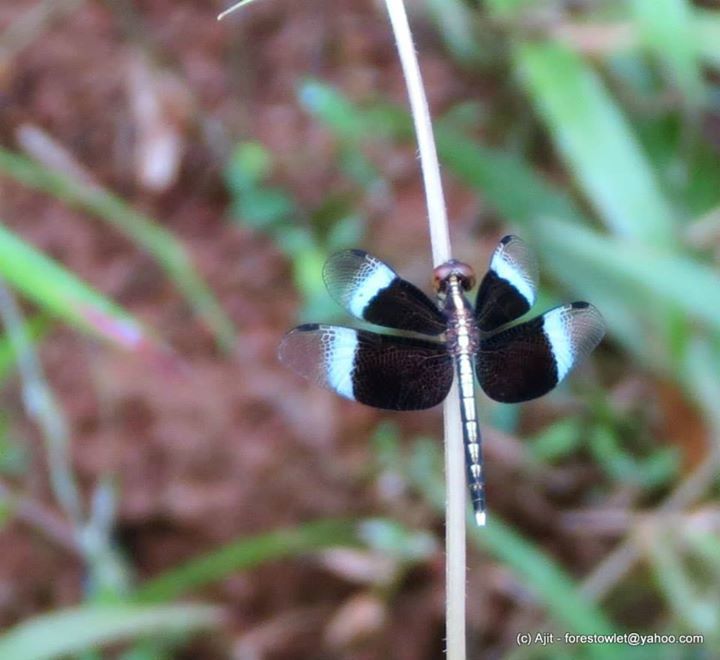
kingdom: Animalia
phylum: Arthropoda
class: Insecta
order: Odonata
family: Libellulidae
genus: Neurothemis
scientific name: Neurothemis tullia
